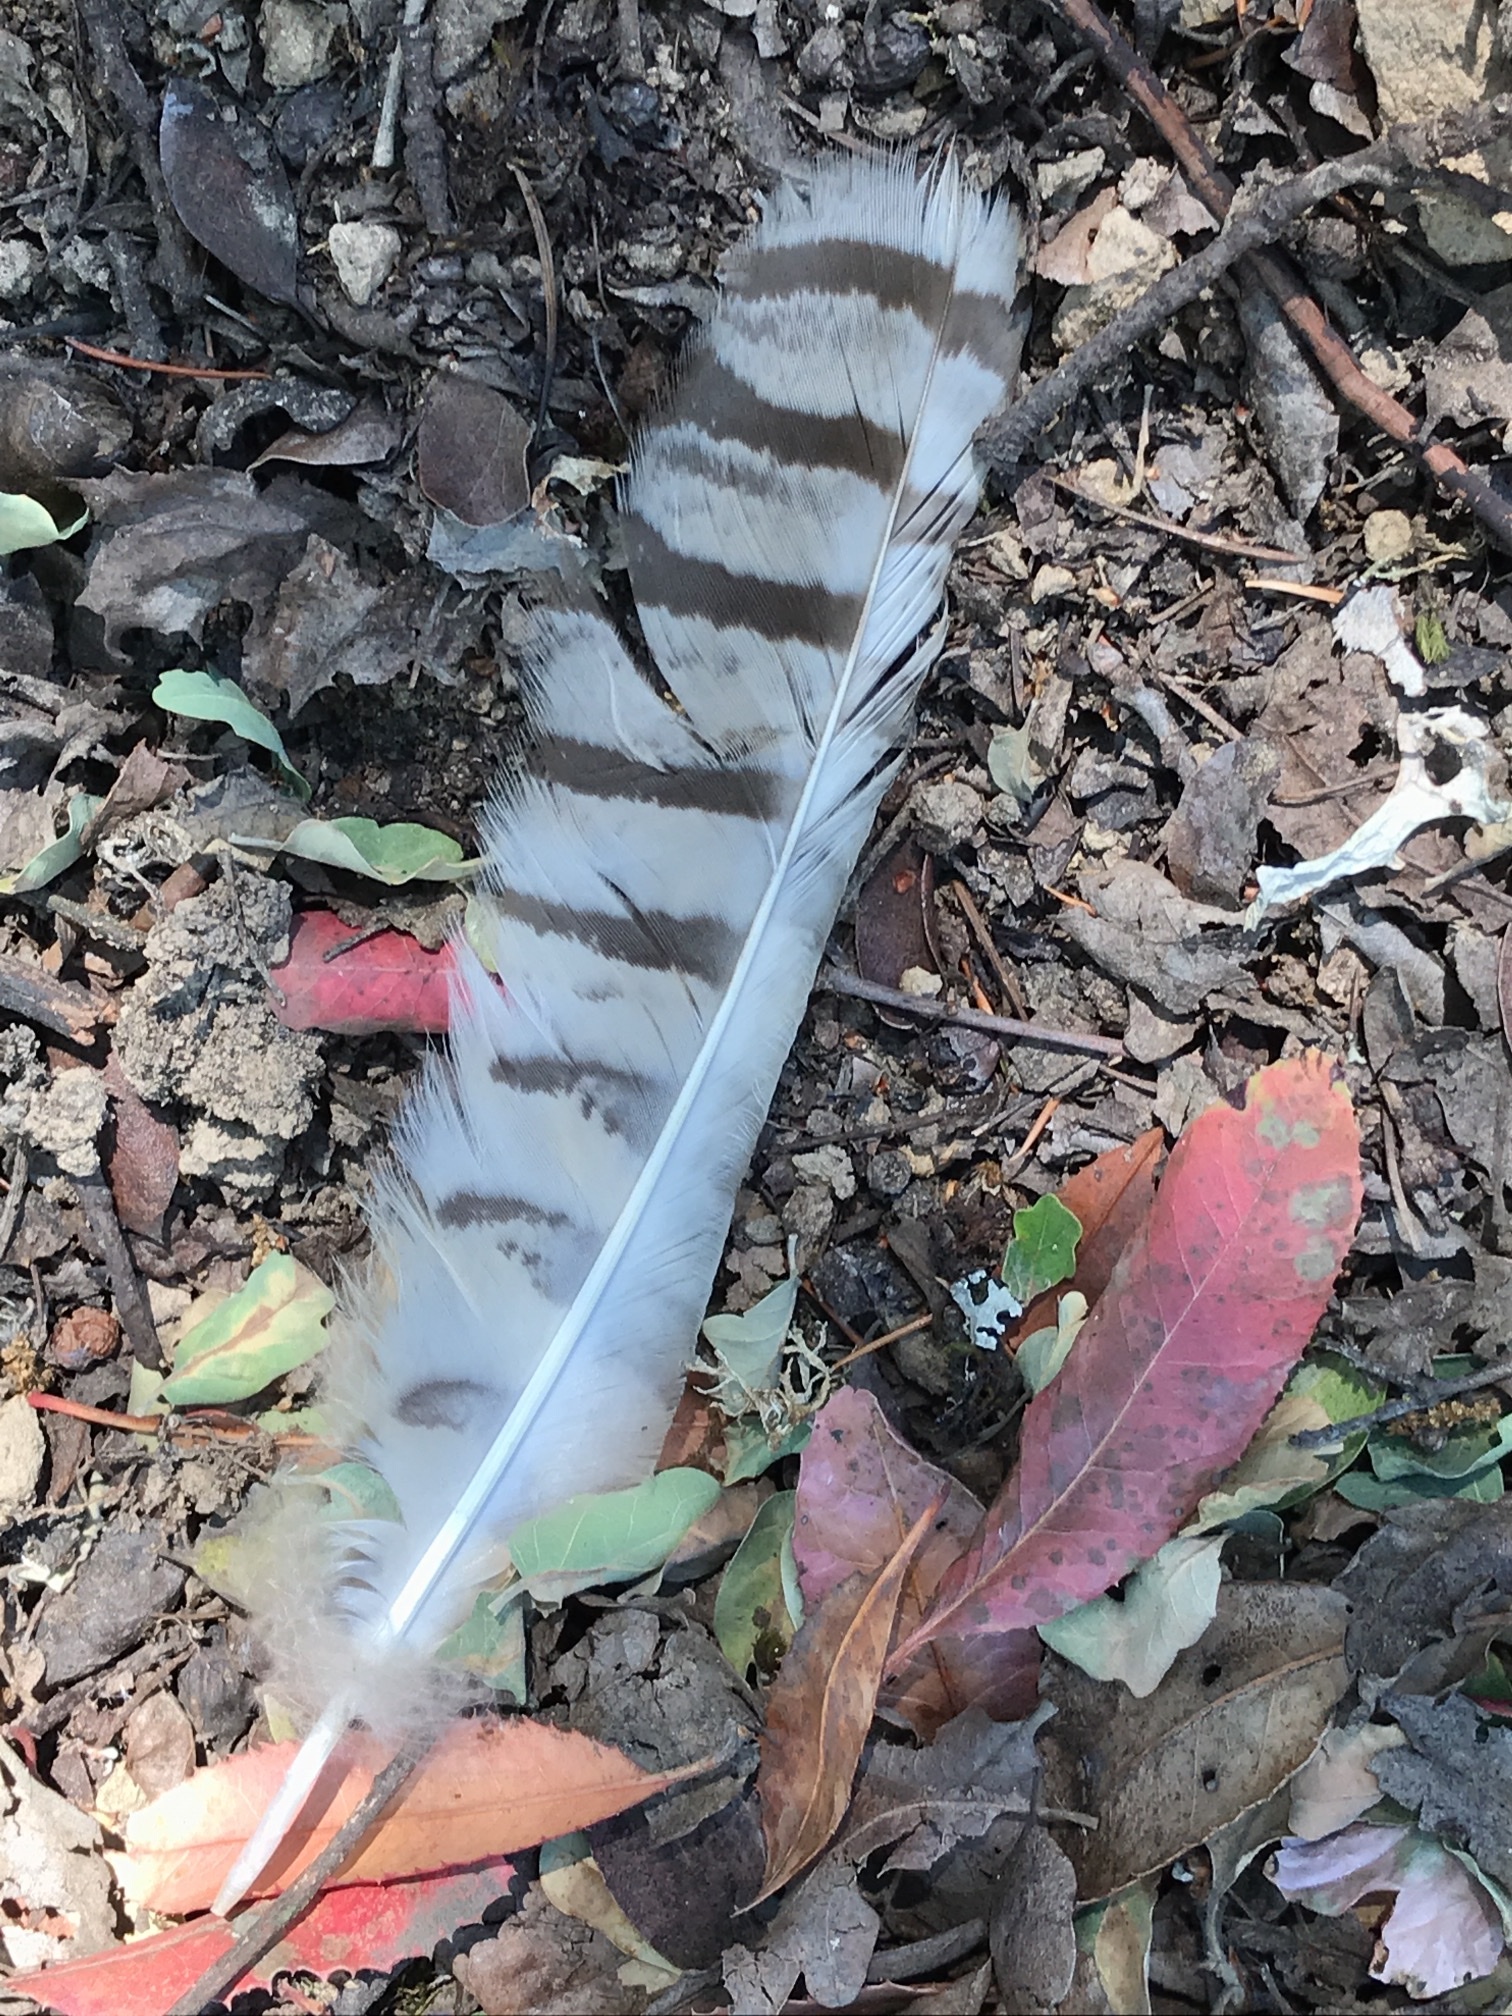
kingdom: Animalia
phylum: Chordata
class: Aves
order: Strigiformes
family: Strigidae
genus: Bubo
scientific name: Bubo virginianus
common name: Great horned owl
